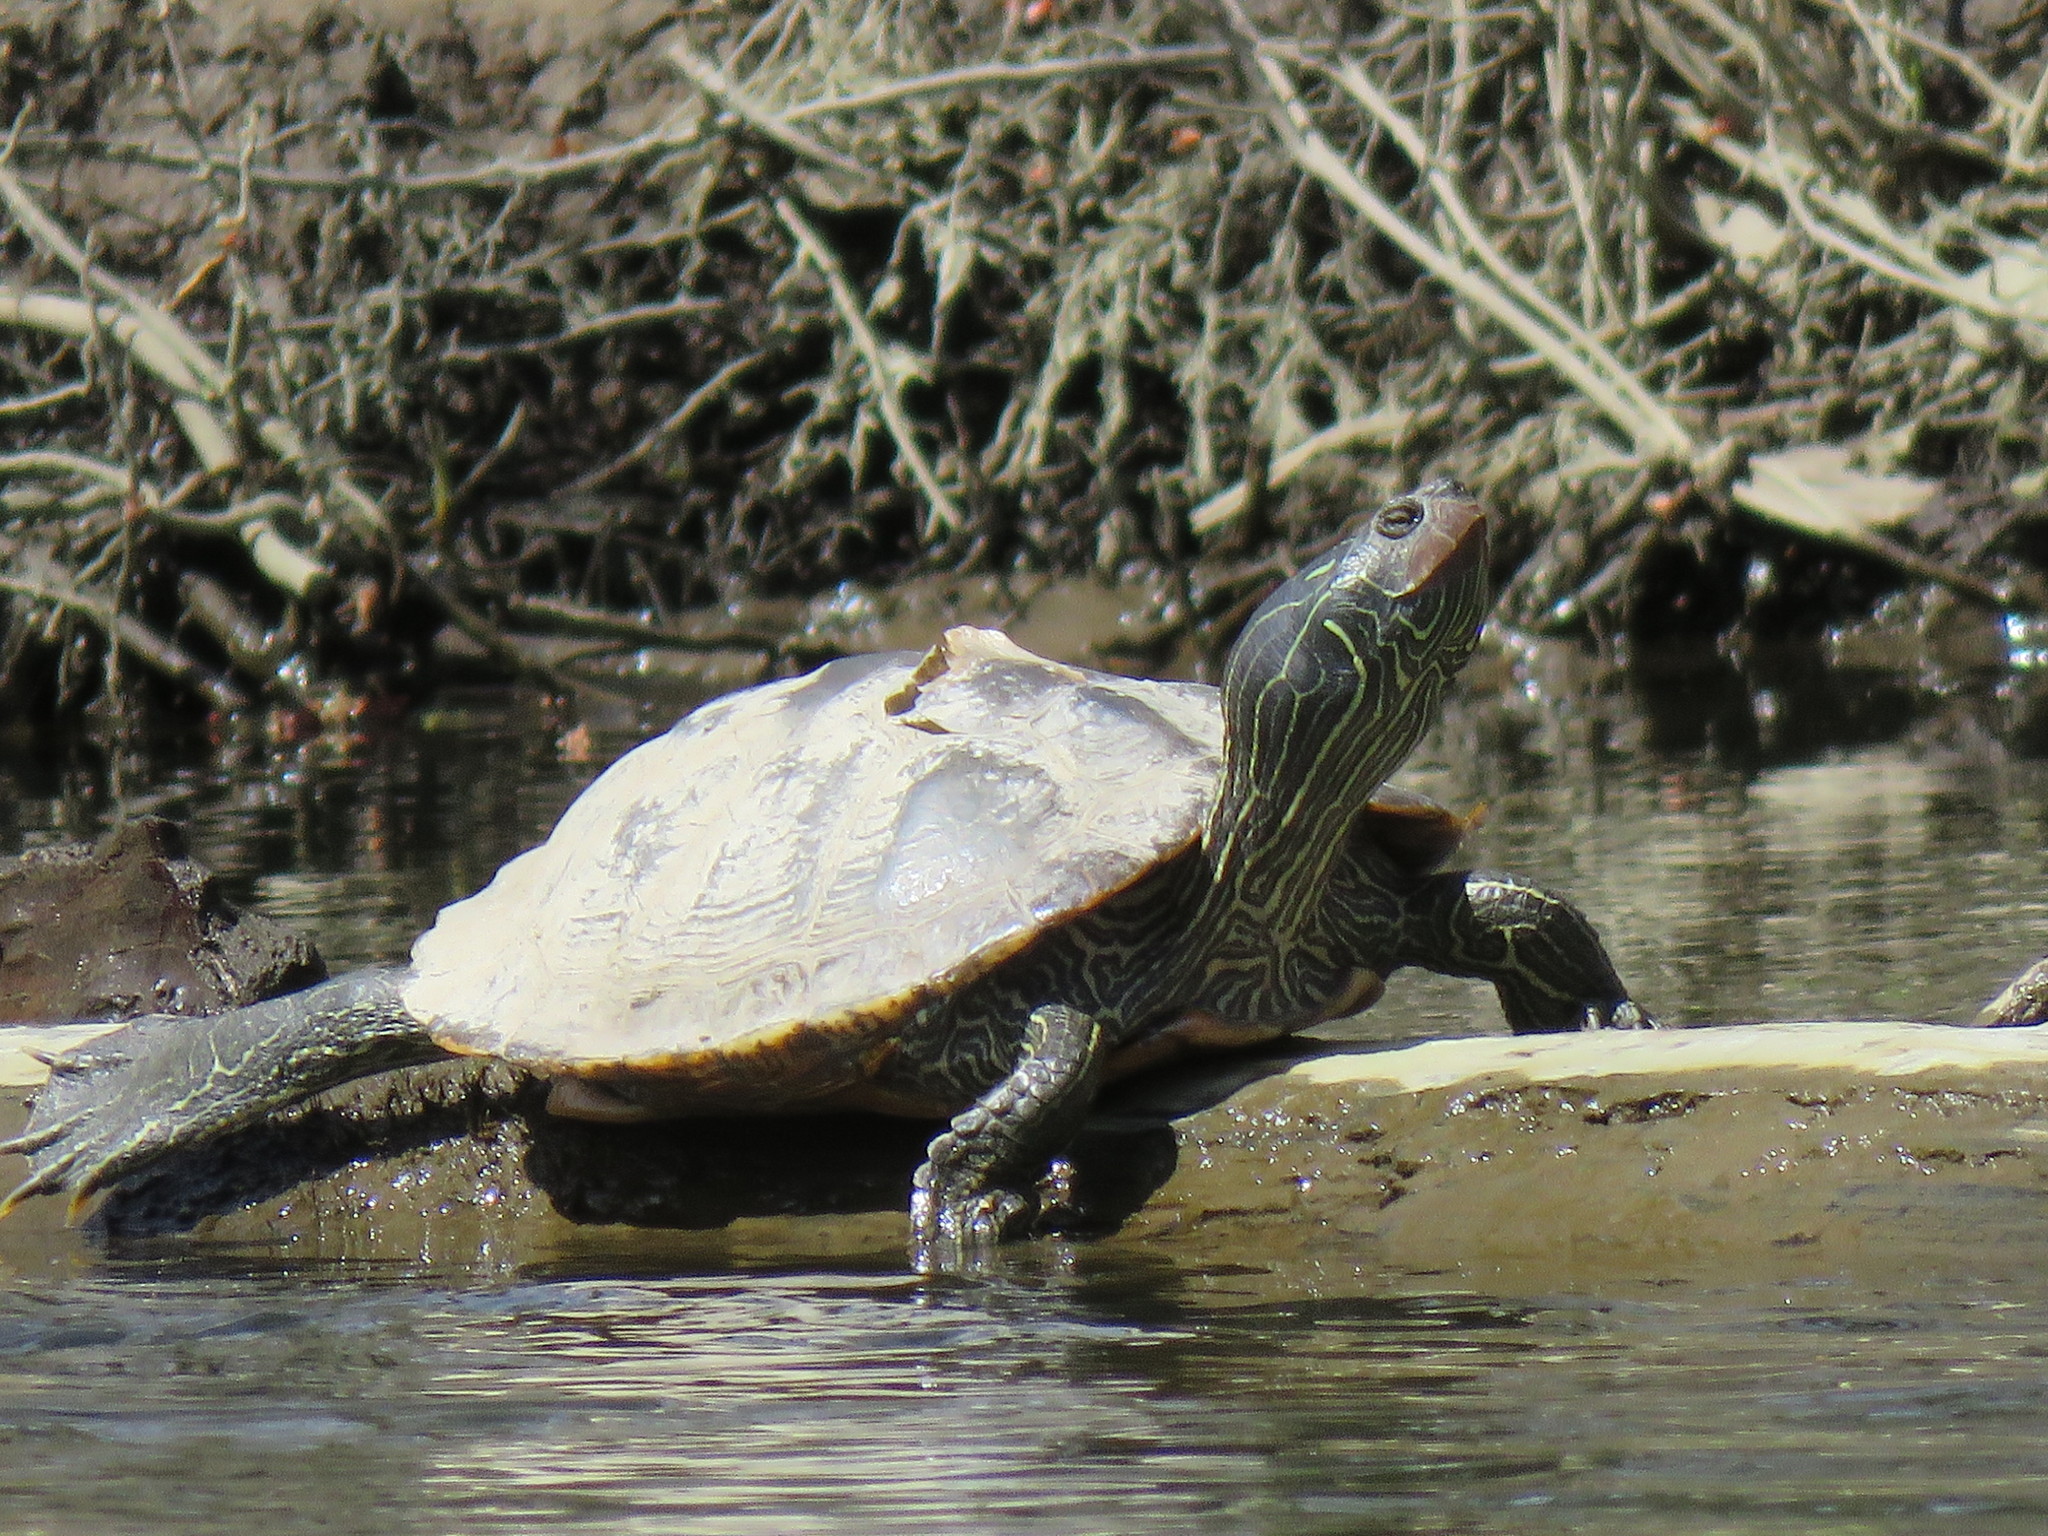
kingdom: Animalia
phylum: Chordata
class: Testudines
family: Emydidae
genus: Graptemys
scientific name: Graptemys geographica
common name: Common map turtle
